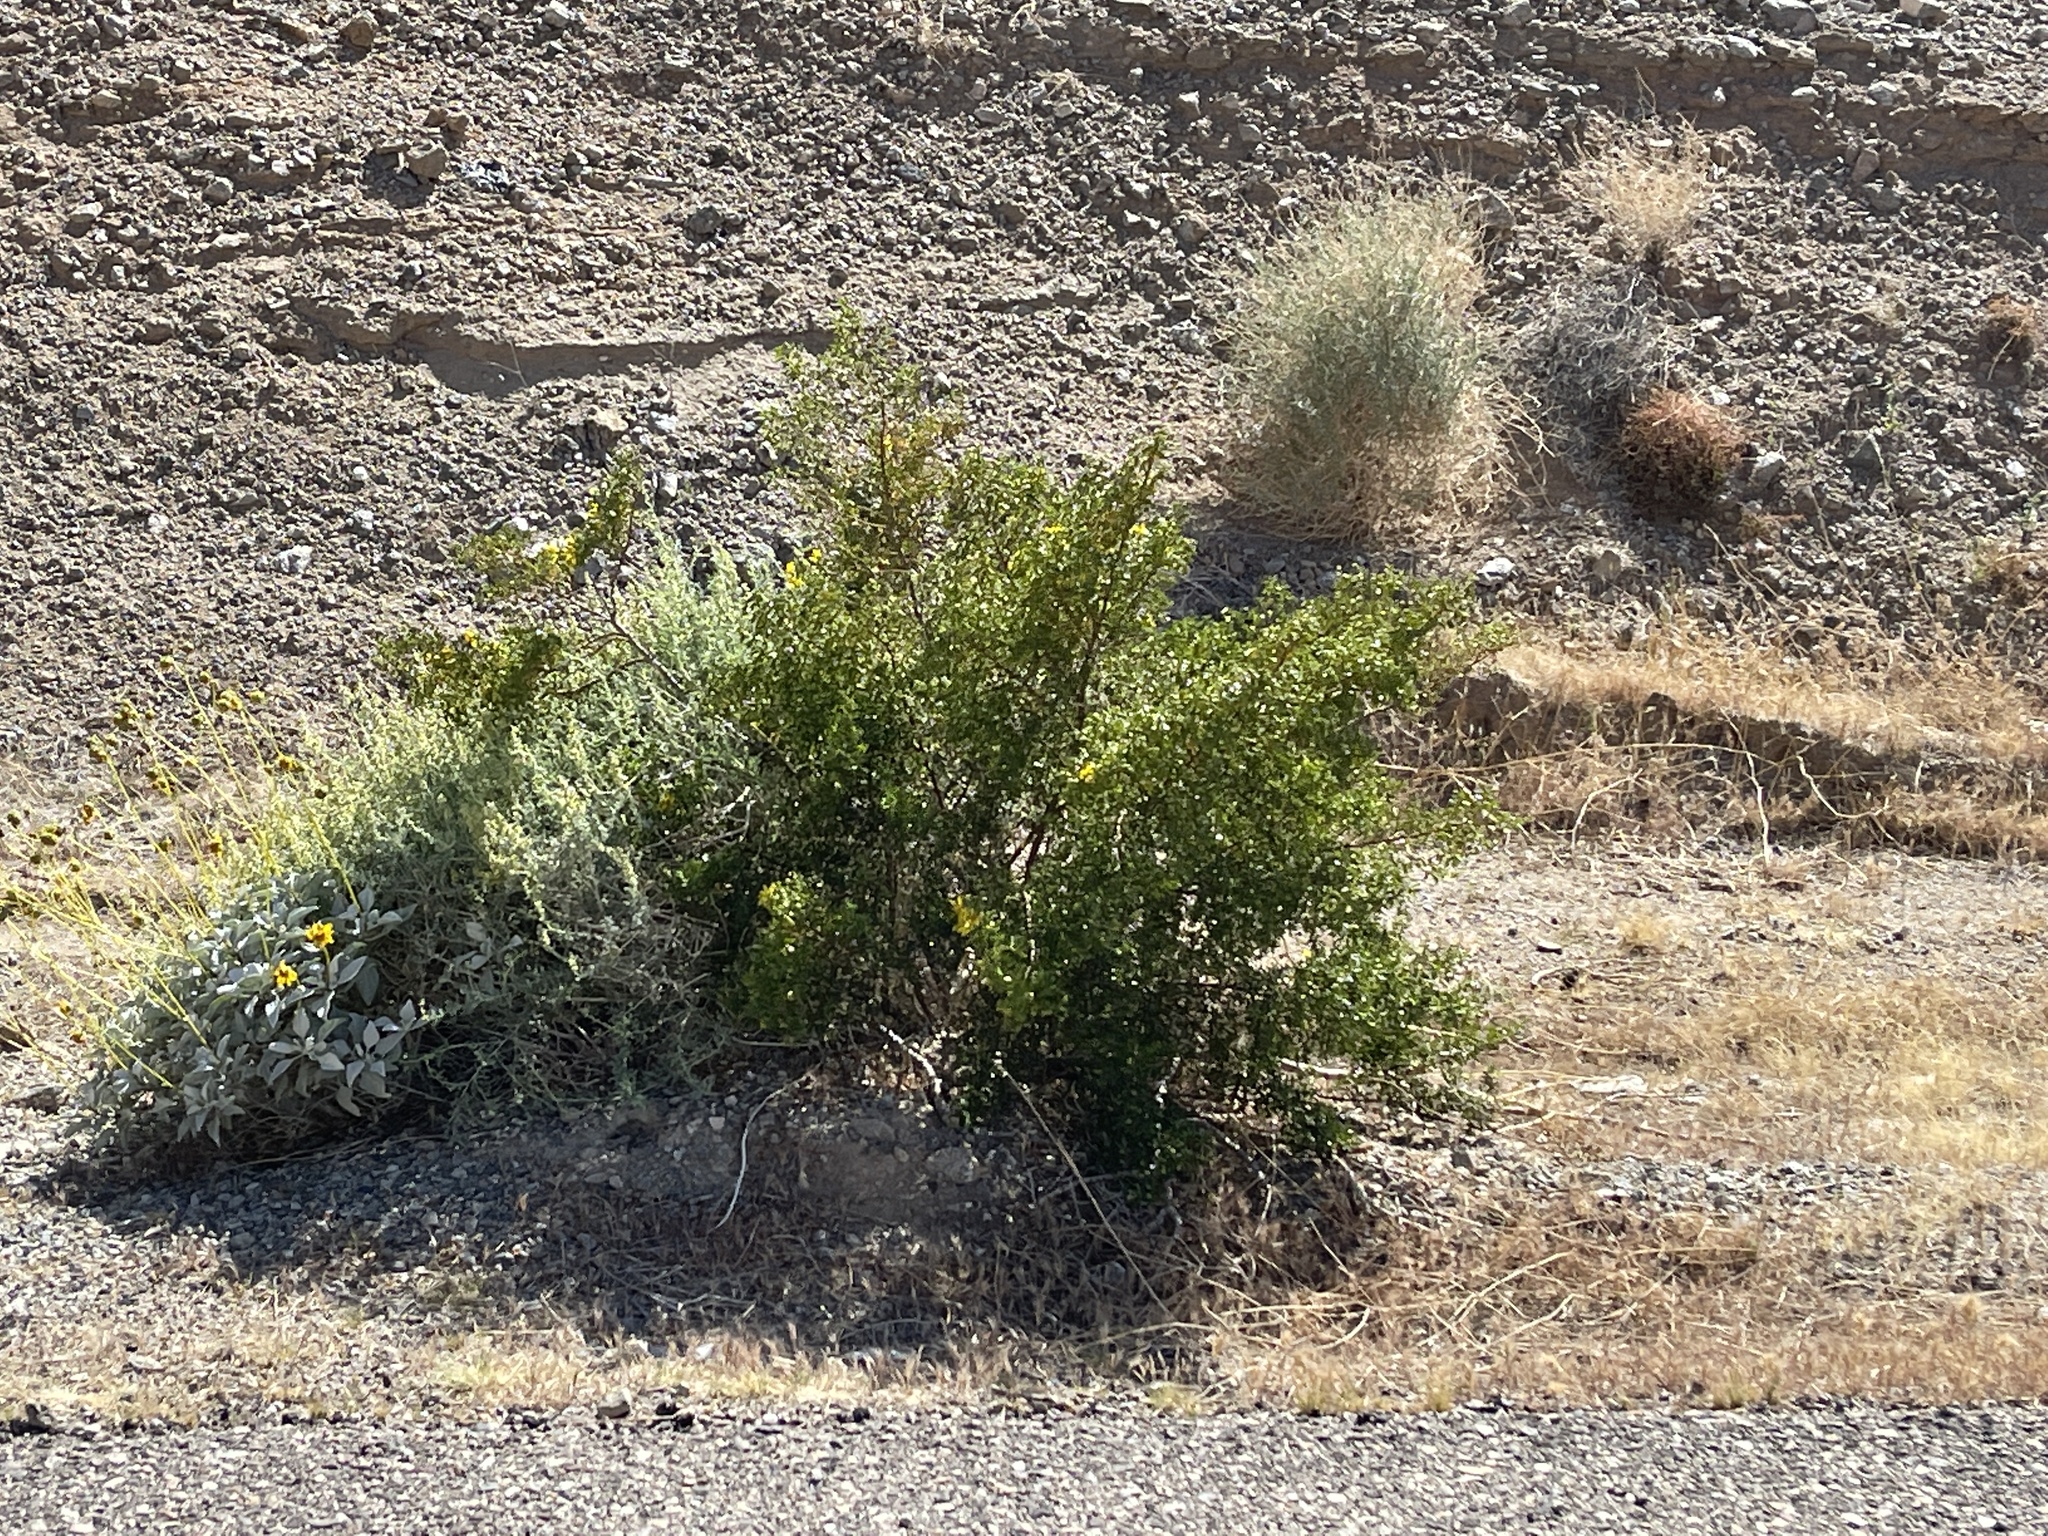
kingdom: Plantae
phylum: Tracheophyta
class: Magnoliopsida
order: Zygophyllales
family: Zygophyllaceae
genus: Larrea
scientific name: Larrea tridentata
